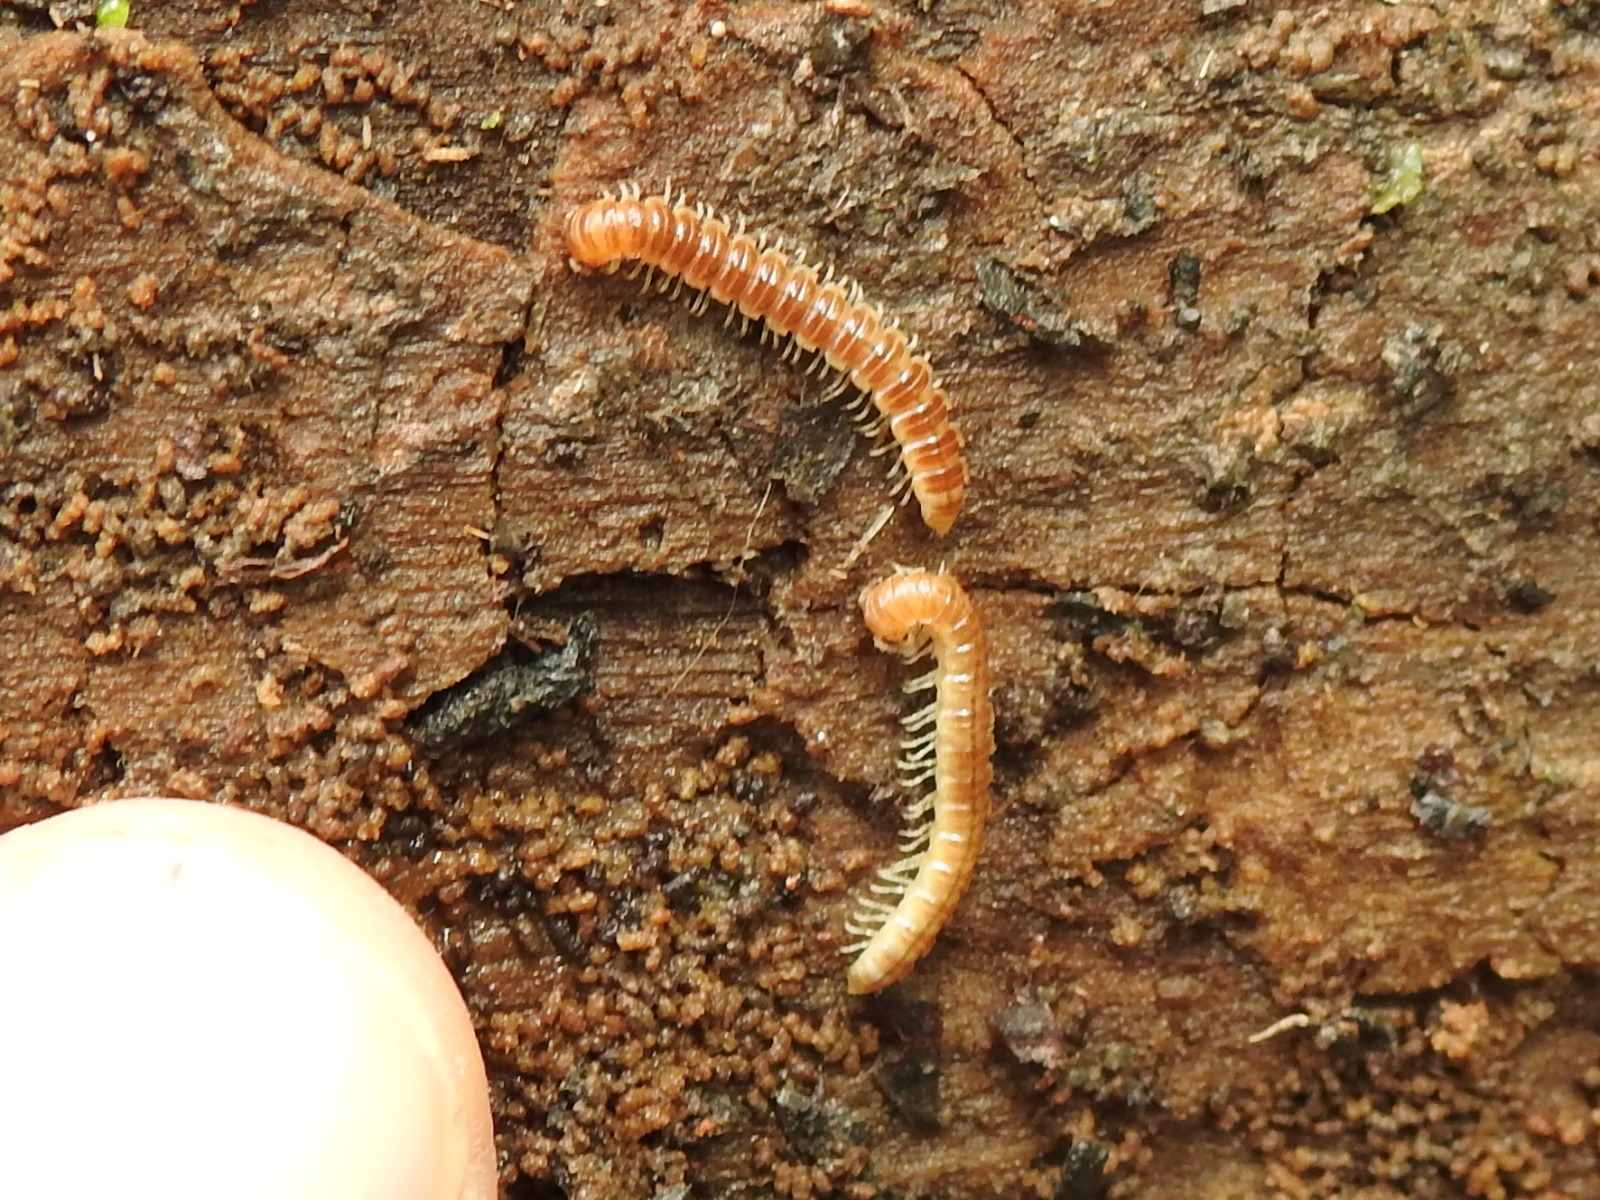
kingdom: Animalia
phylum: Arthropoda
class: Diplopoda
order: Polydesmida
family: Paradoxosomatidae
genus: Oxidus
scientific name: Oxidus gracilis
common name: Greenhouse millipede
